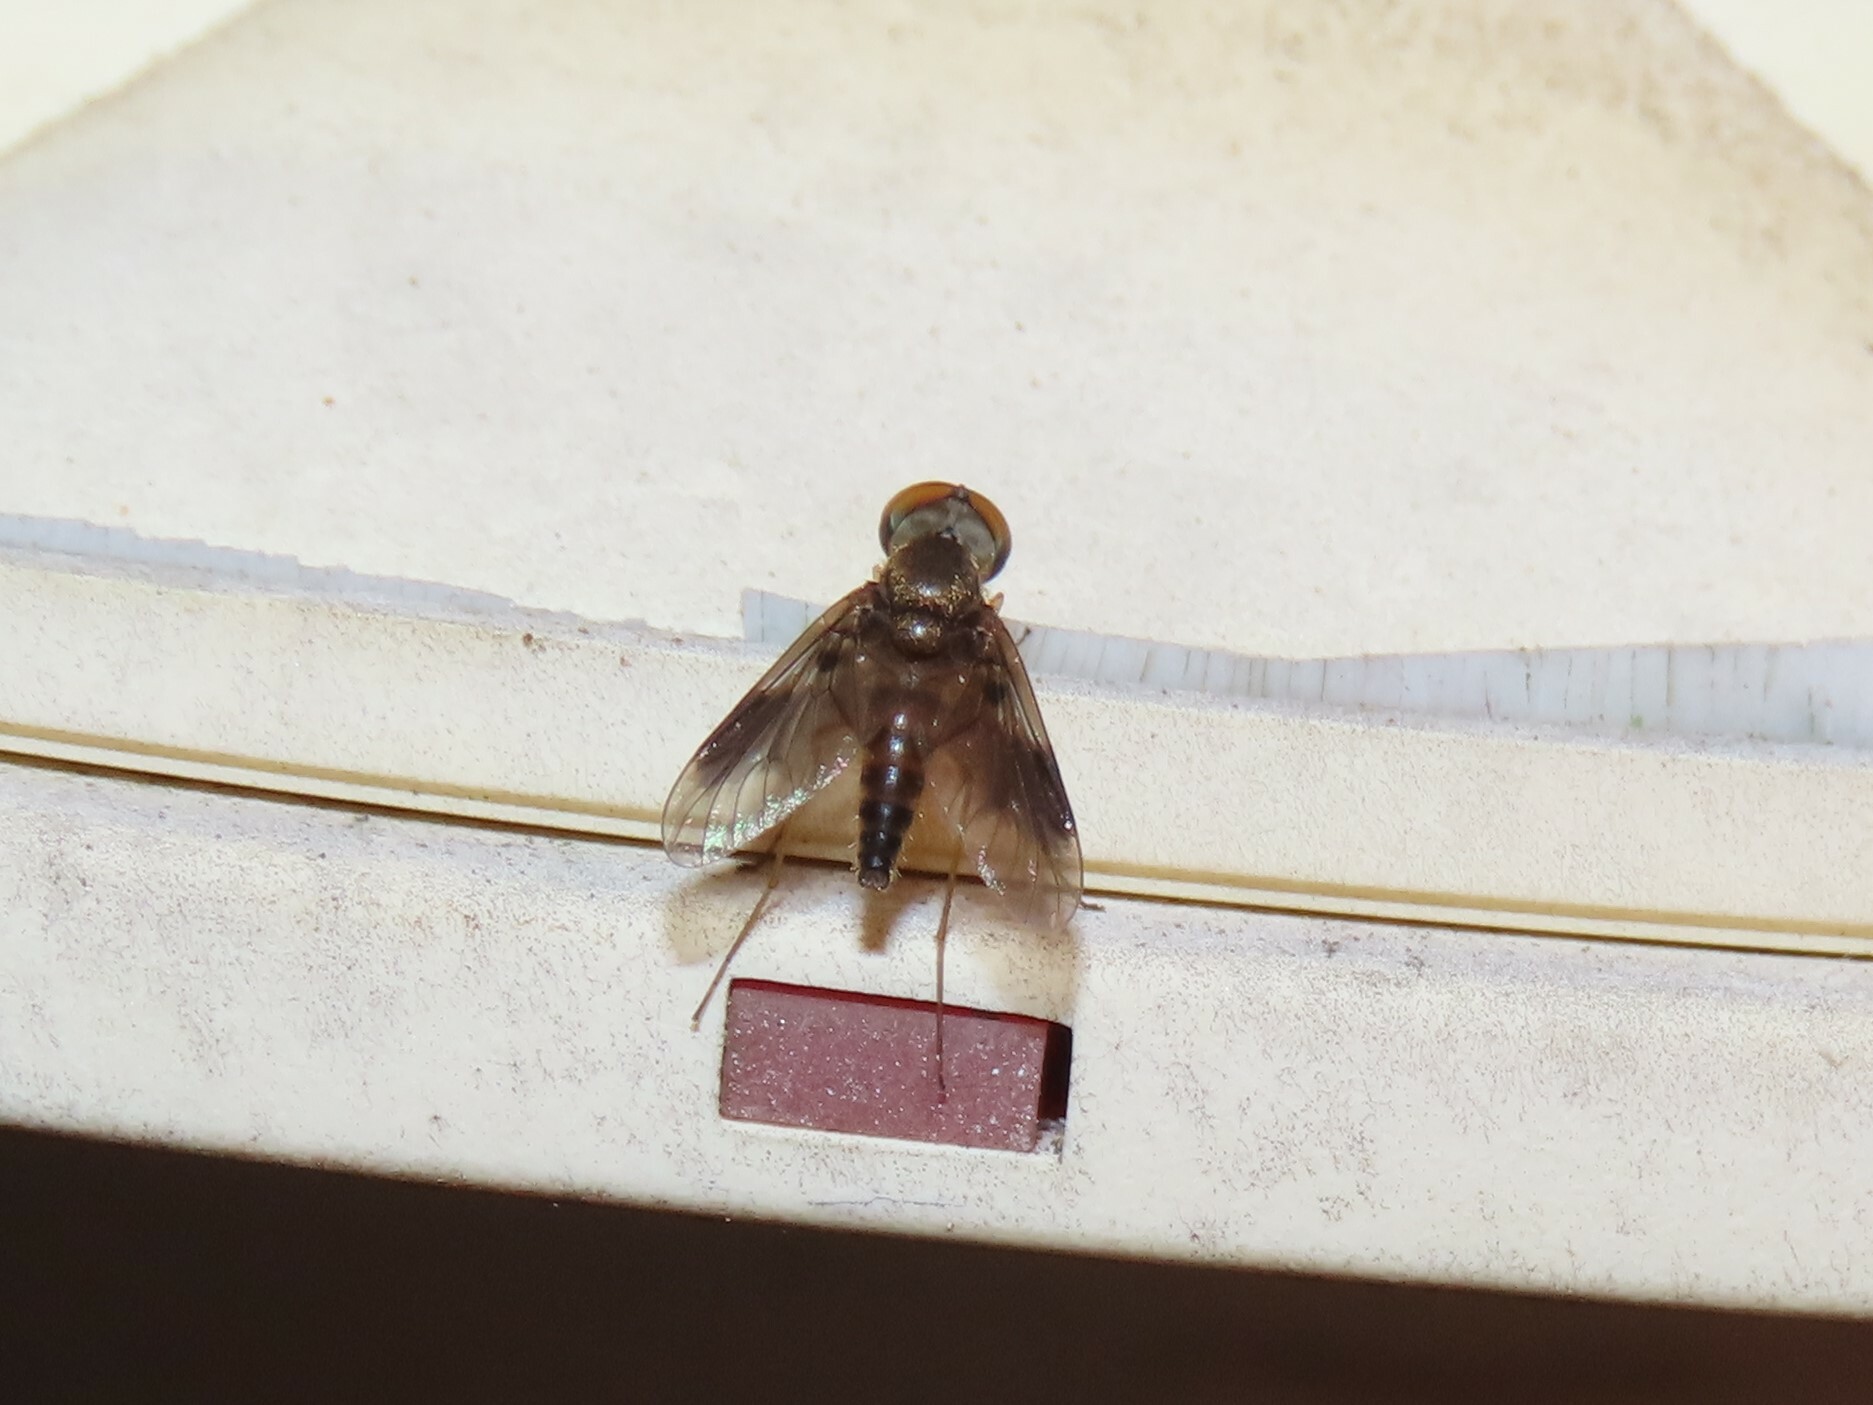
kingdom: Animalia
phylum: Arthropoda
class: Insecta
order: Diptera
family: Rhagionidae
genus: Chrysopilus
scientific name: Chrysopilus quadratus
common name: Quadrate snipe fly
